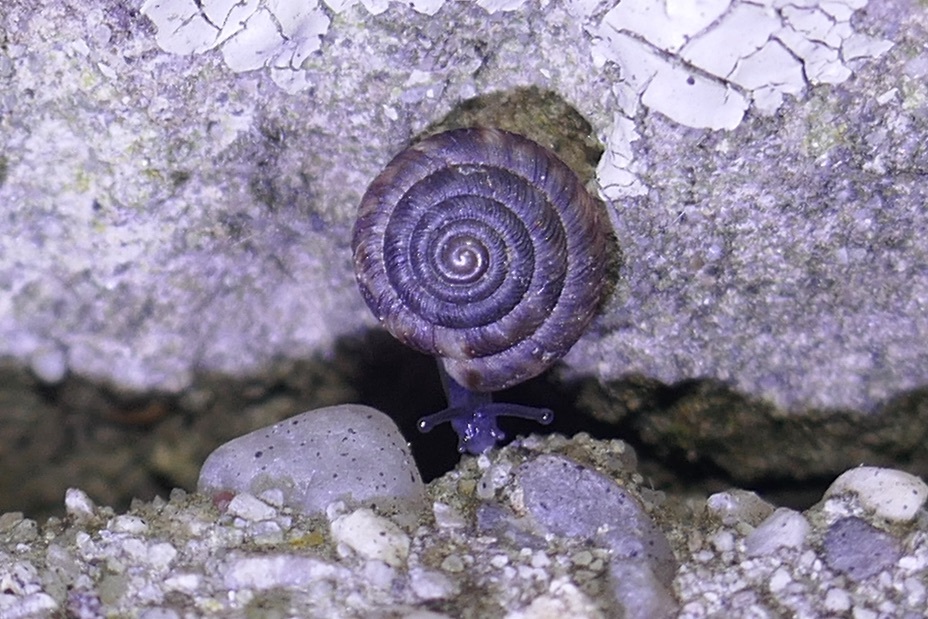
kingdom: Animalia
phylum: Mollusca
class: Gastropoda
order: Stylommatophora
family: Discidae
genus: Discus
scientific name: Discus rotundatus
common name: Rounded snail
